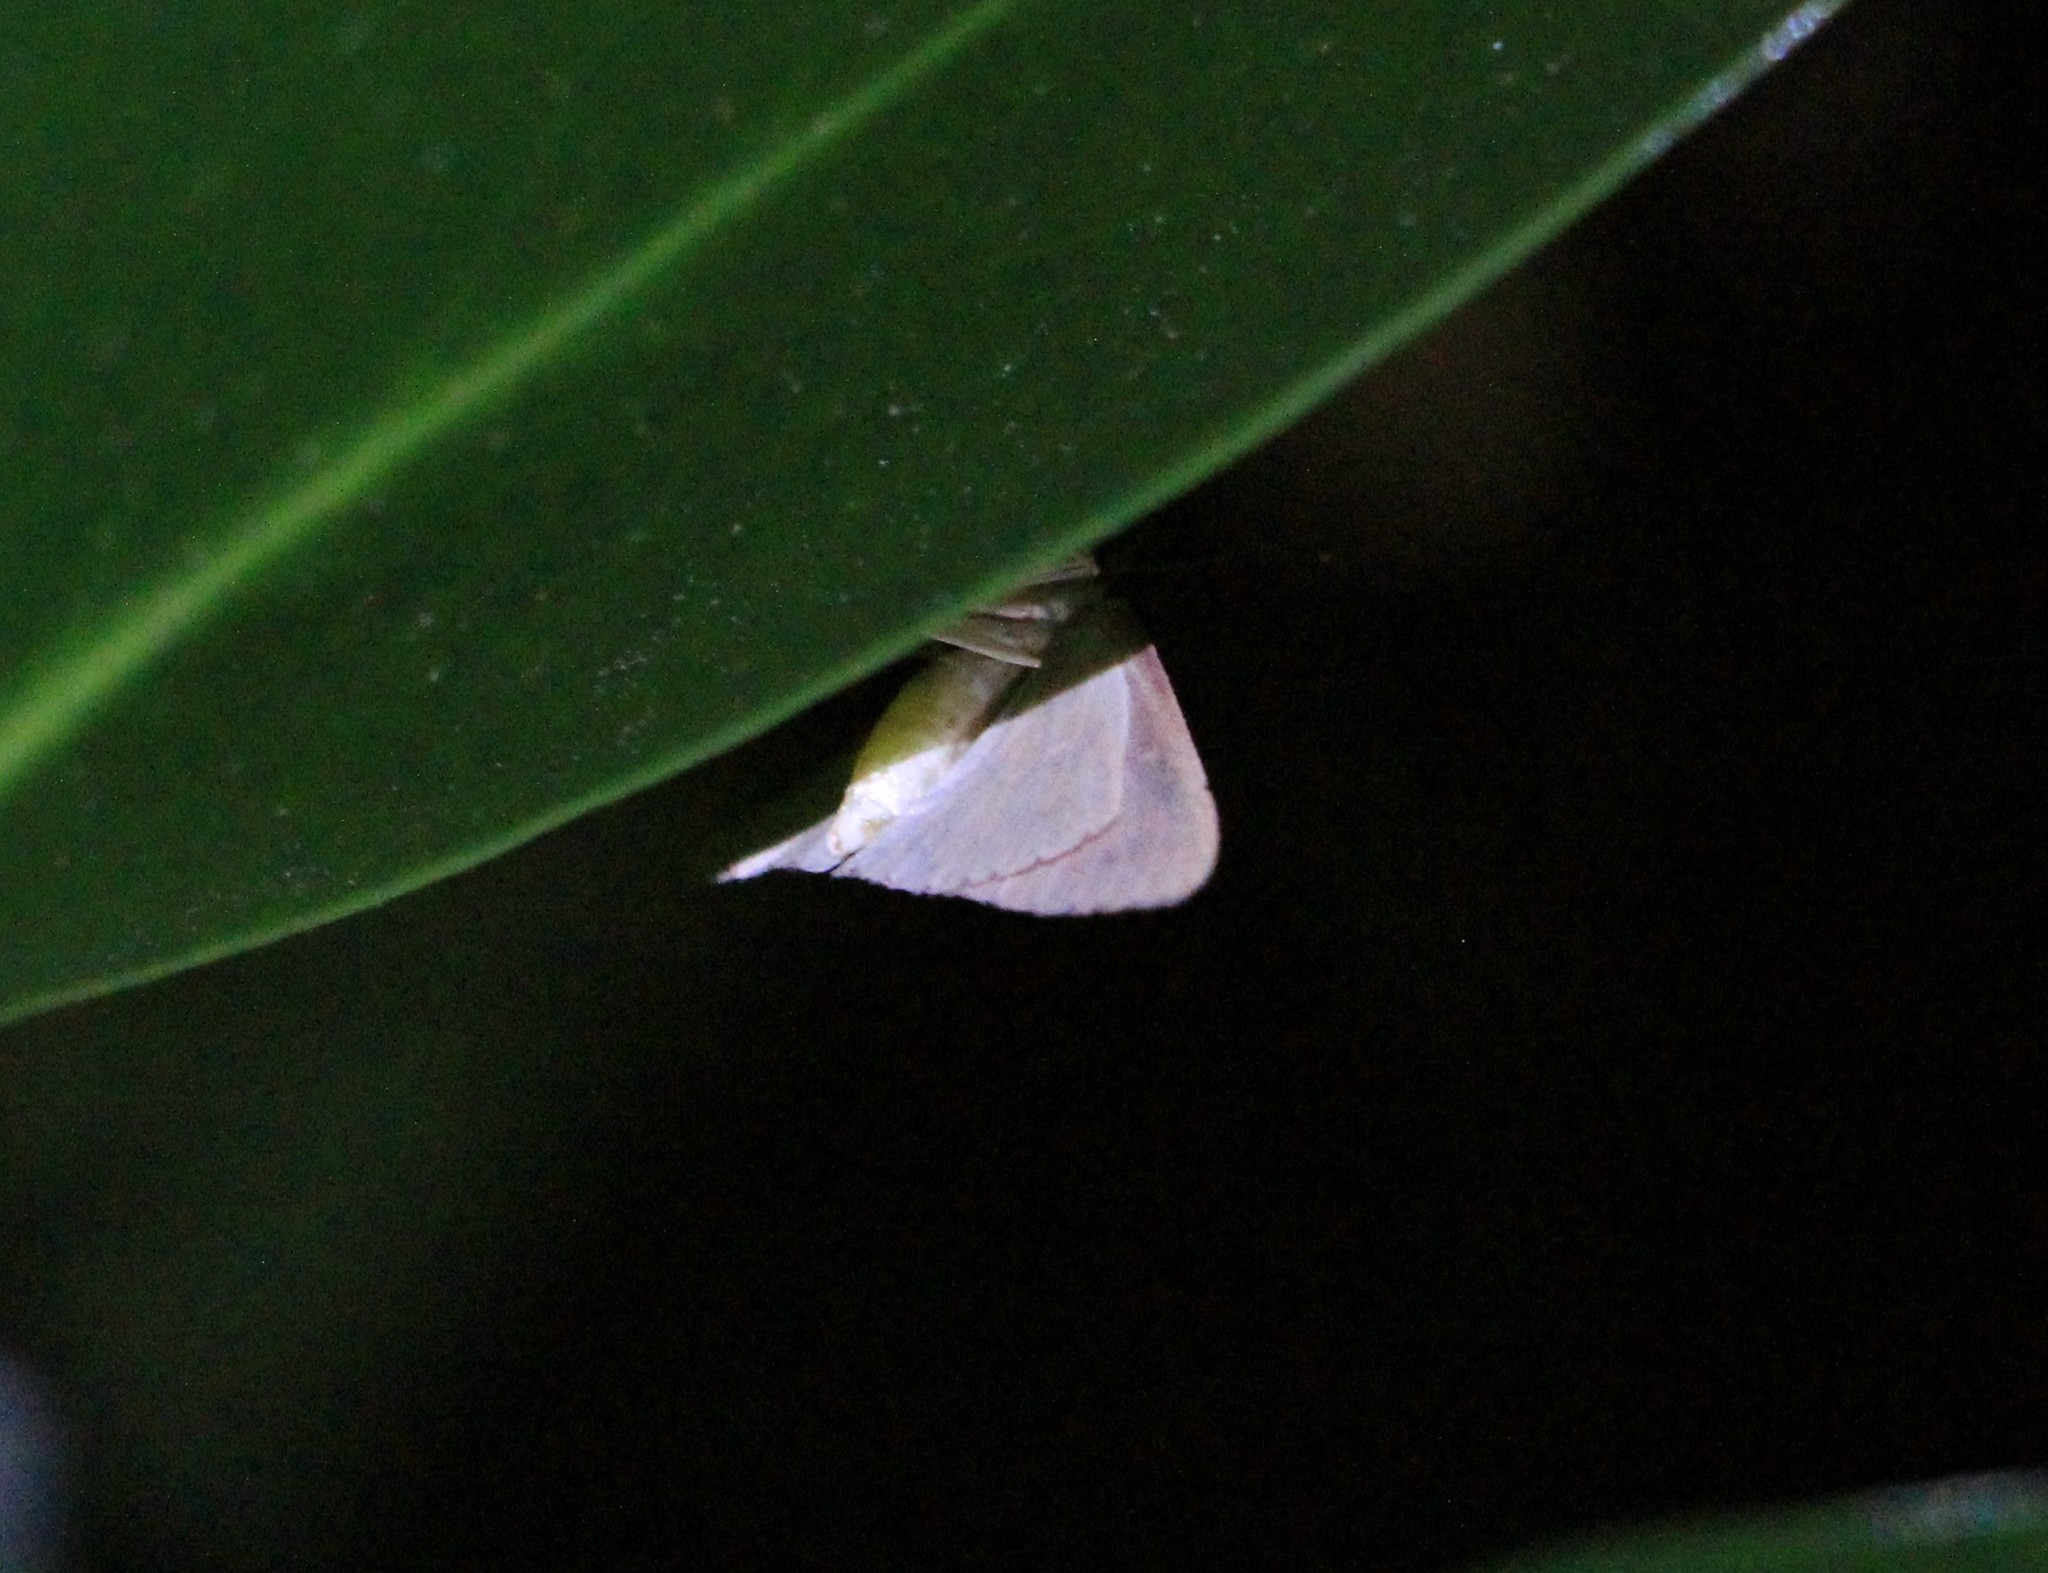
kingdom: Animalia
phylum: Arthropoda
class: Insecta
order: Lepidoptera
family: Geometridae
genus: Cyclophora
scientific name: Cyclophora obstataria
